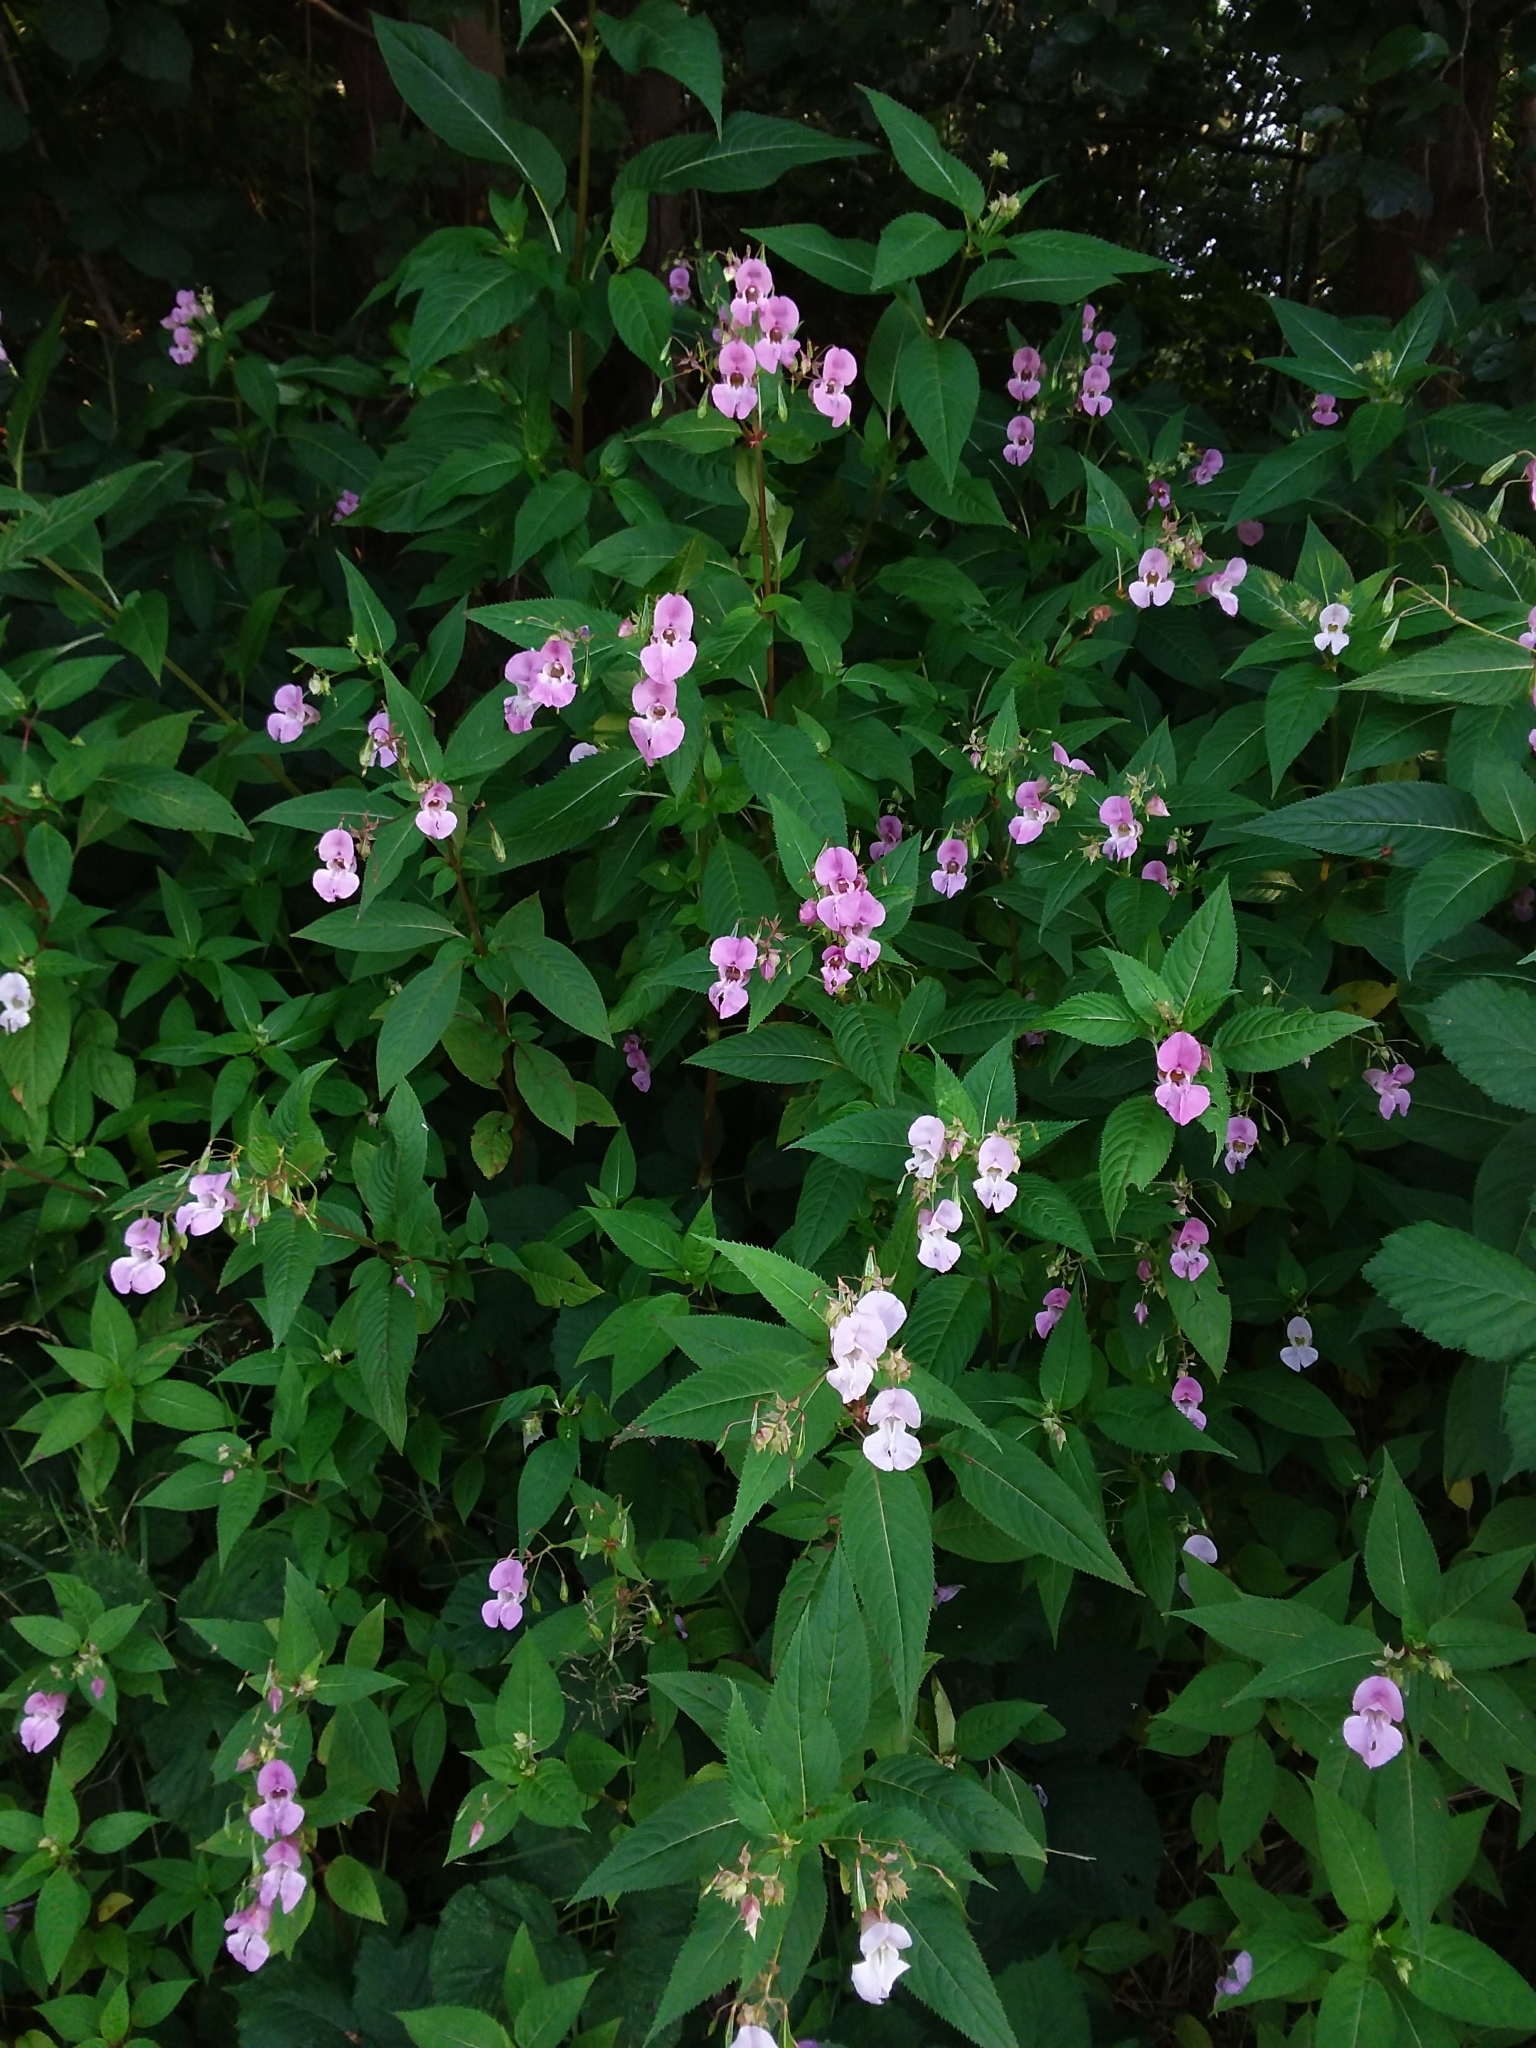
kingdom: Plantae
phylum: Tracheophyta
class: Magnoliopsida
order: Ericales
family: Balsaminaceae
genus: Impatiens
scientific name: Impatiens glandulifera
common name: Himalayan balsam
